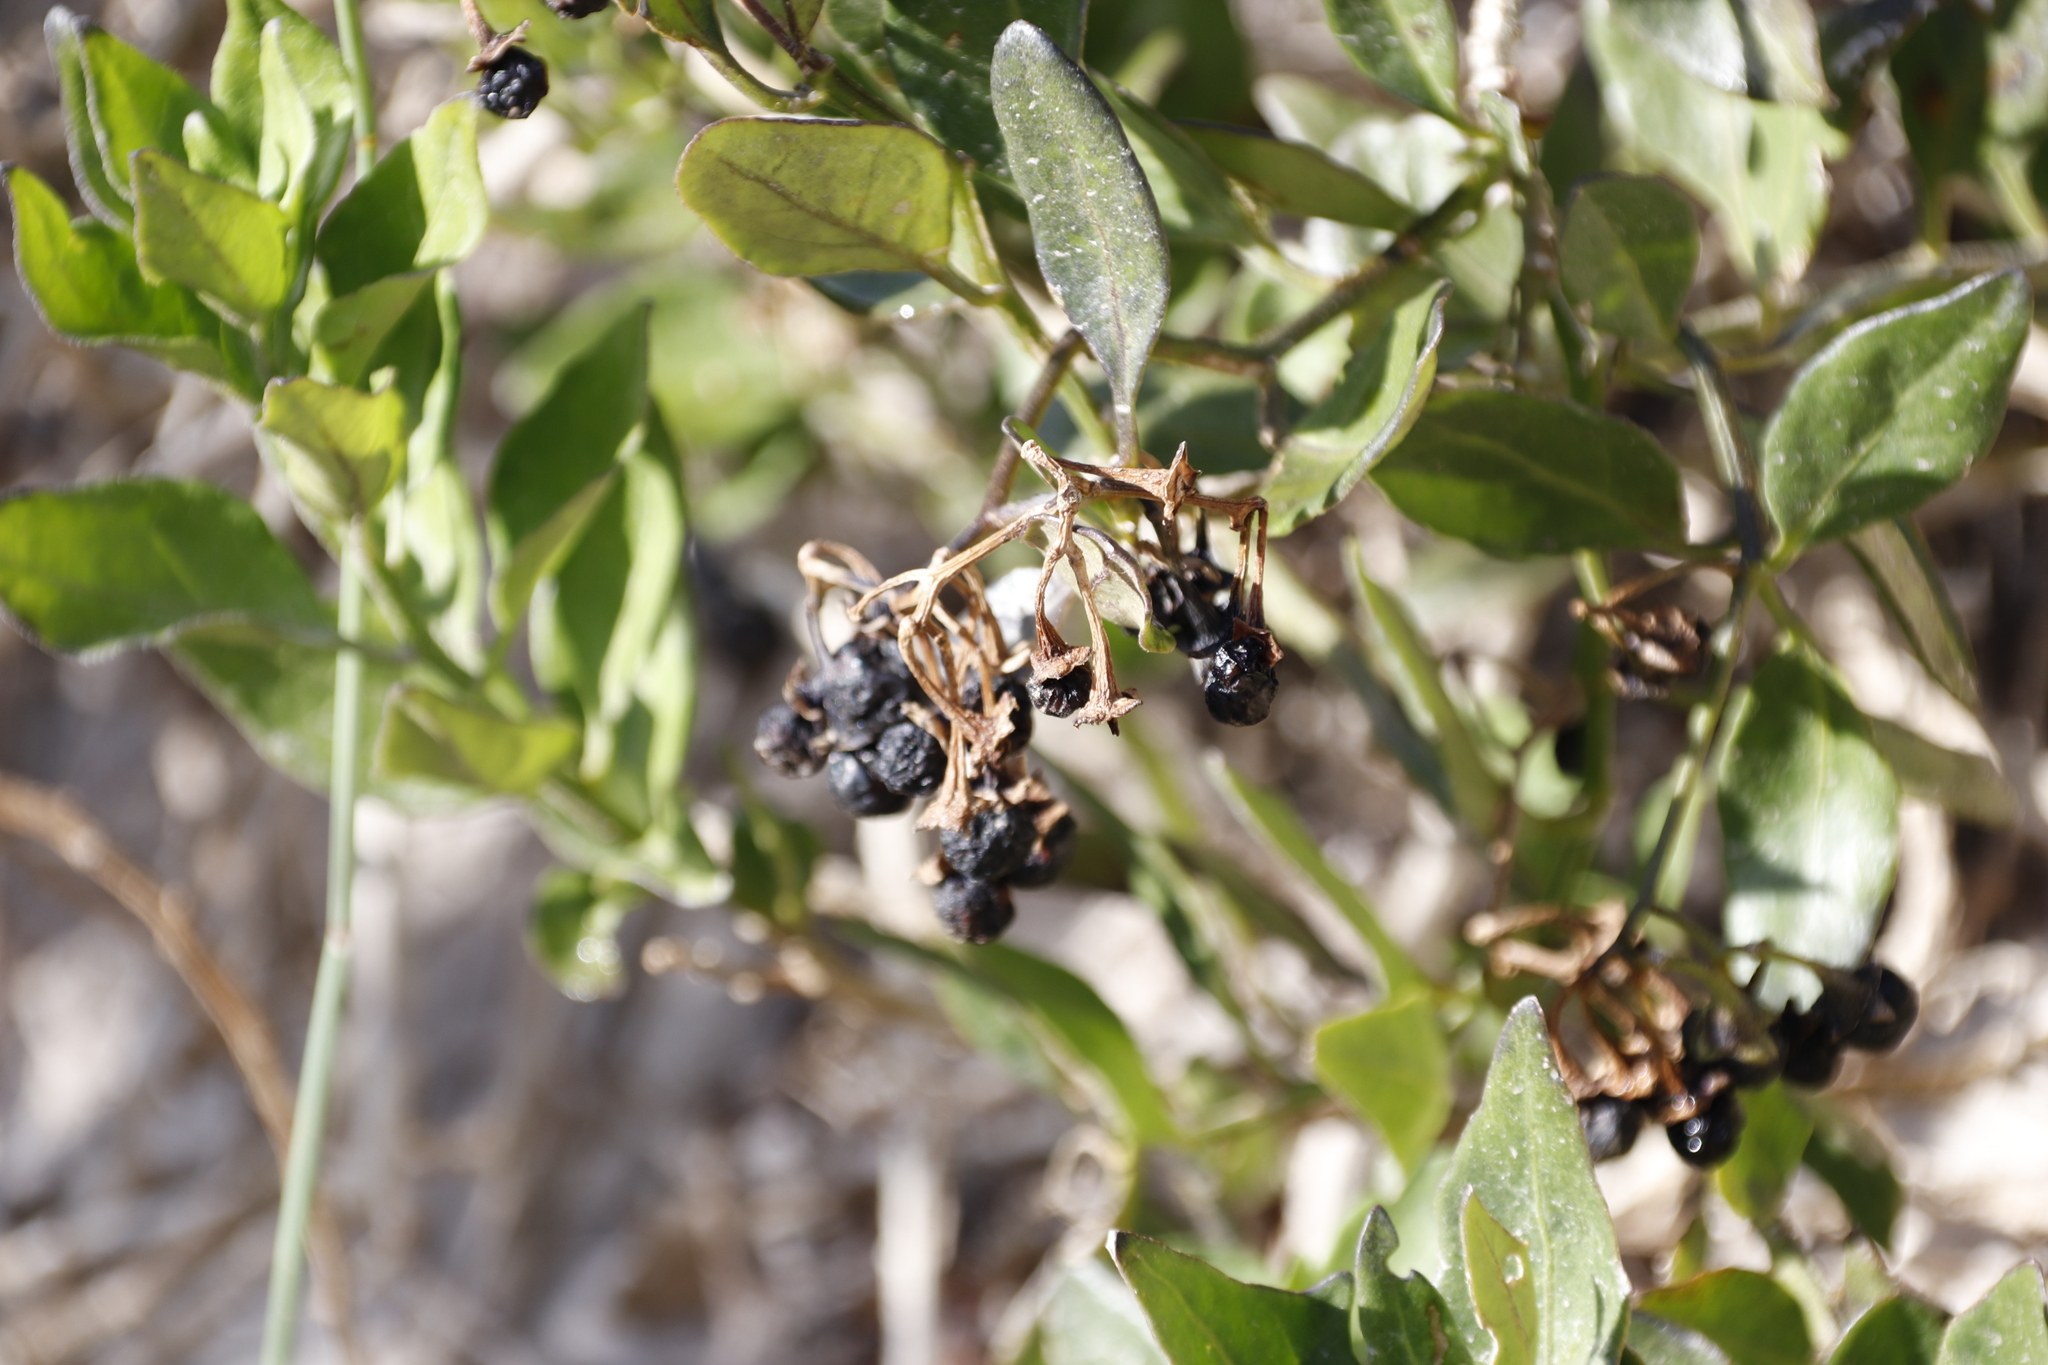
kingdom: Plantae
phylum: Tracheophyta
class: Magnoliopsida
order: Asterales
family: Asteraceae
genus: Osteospermum
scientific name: Osteospermum moniliferum
